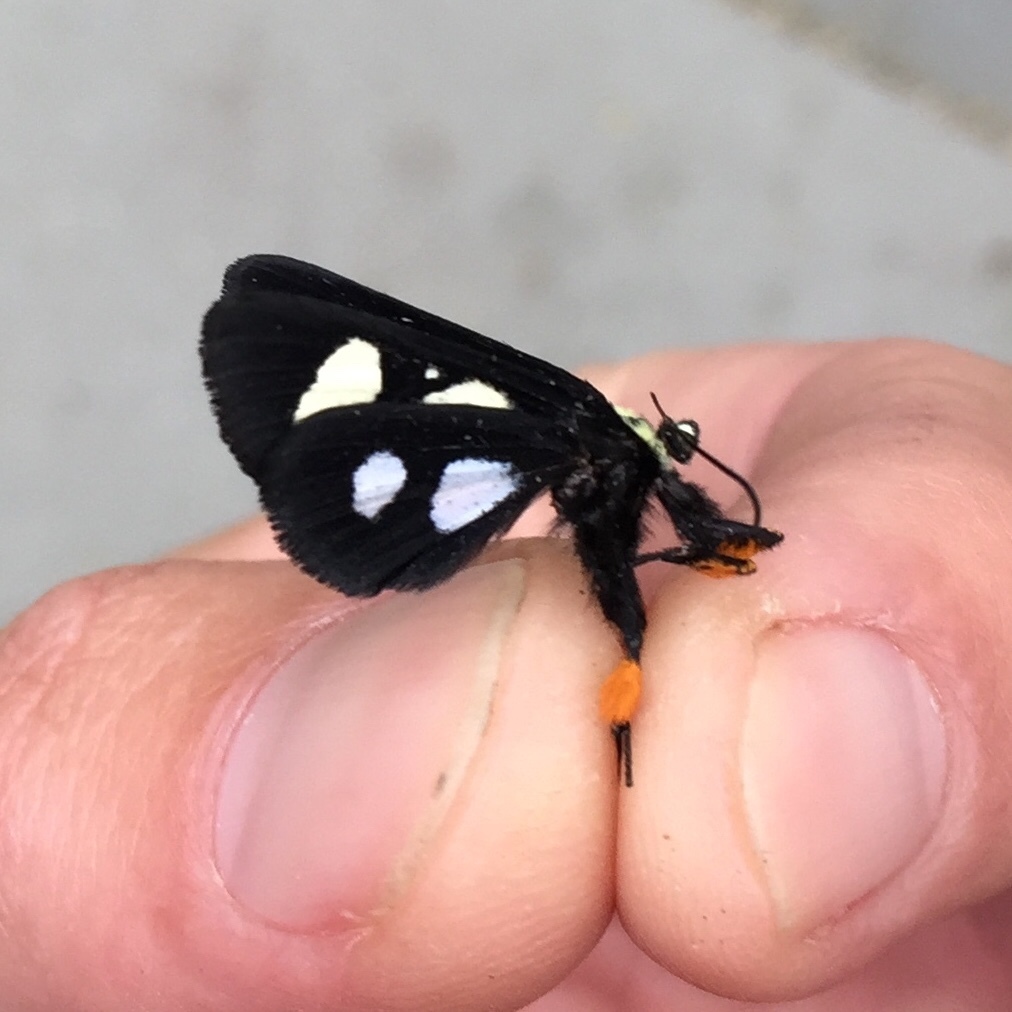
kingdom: Animalia
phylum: Arthropoda
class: Insecta
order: Lepidoptera
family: Noctuidae
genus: Alypia
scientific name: Alypia octomaculata
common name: Eight-spotted forester
